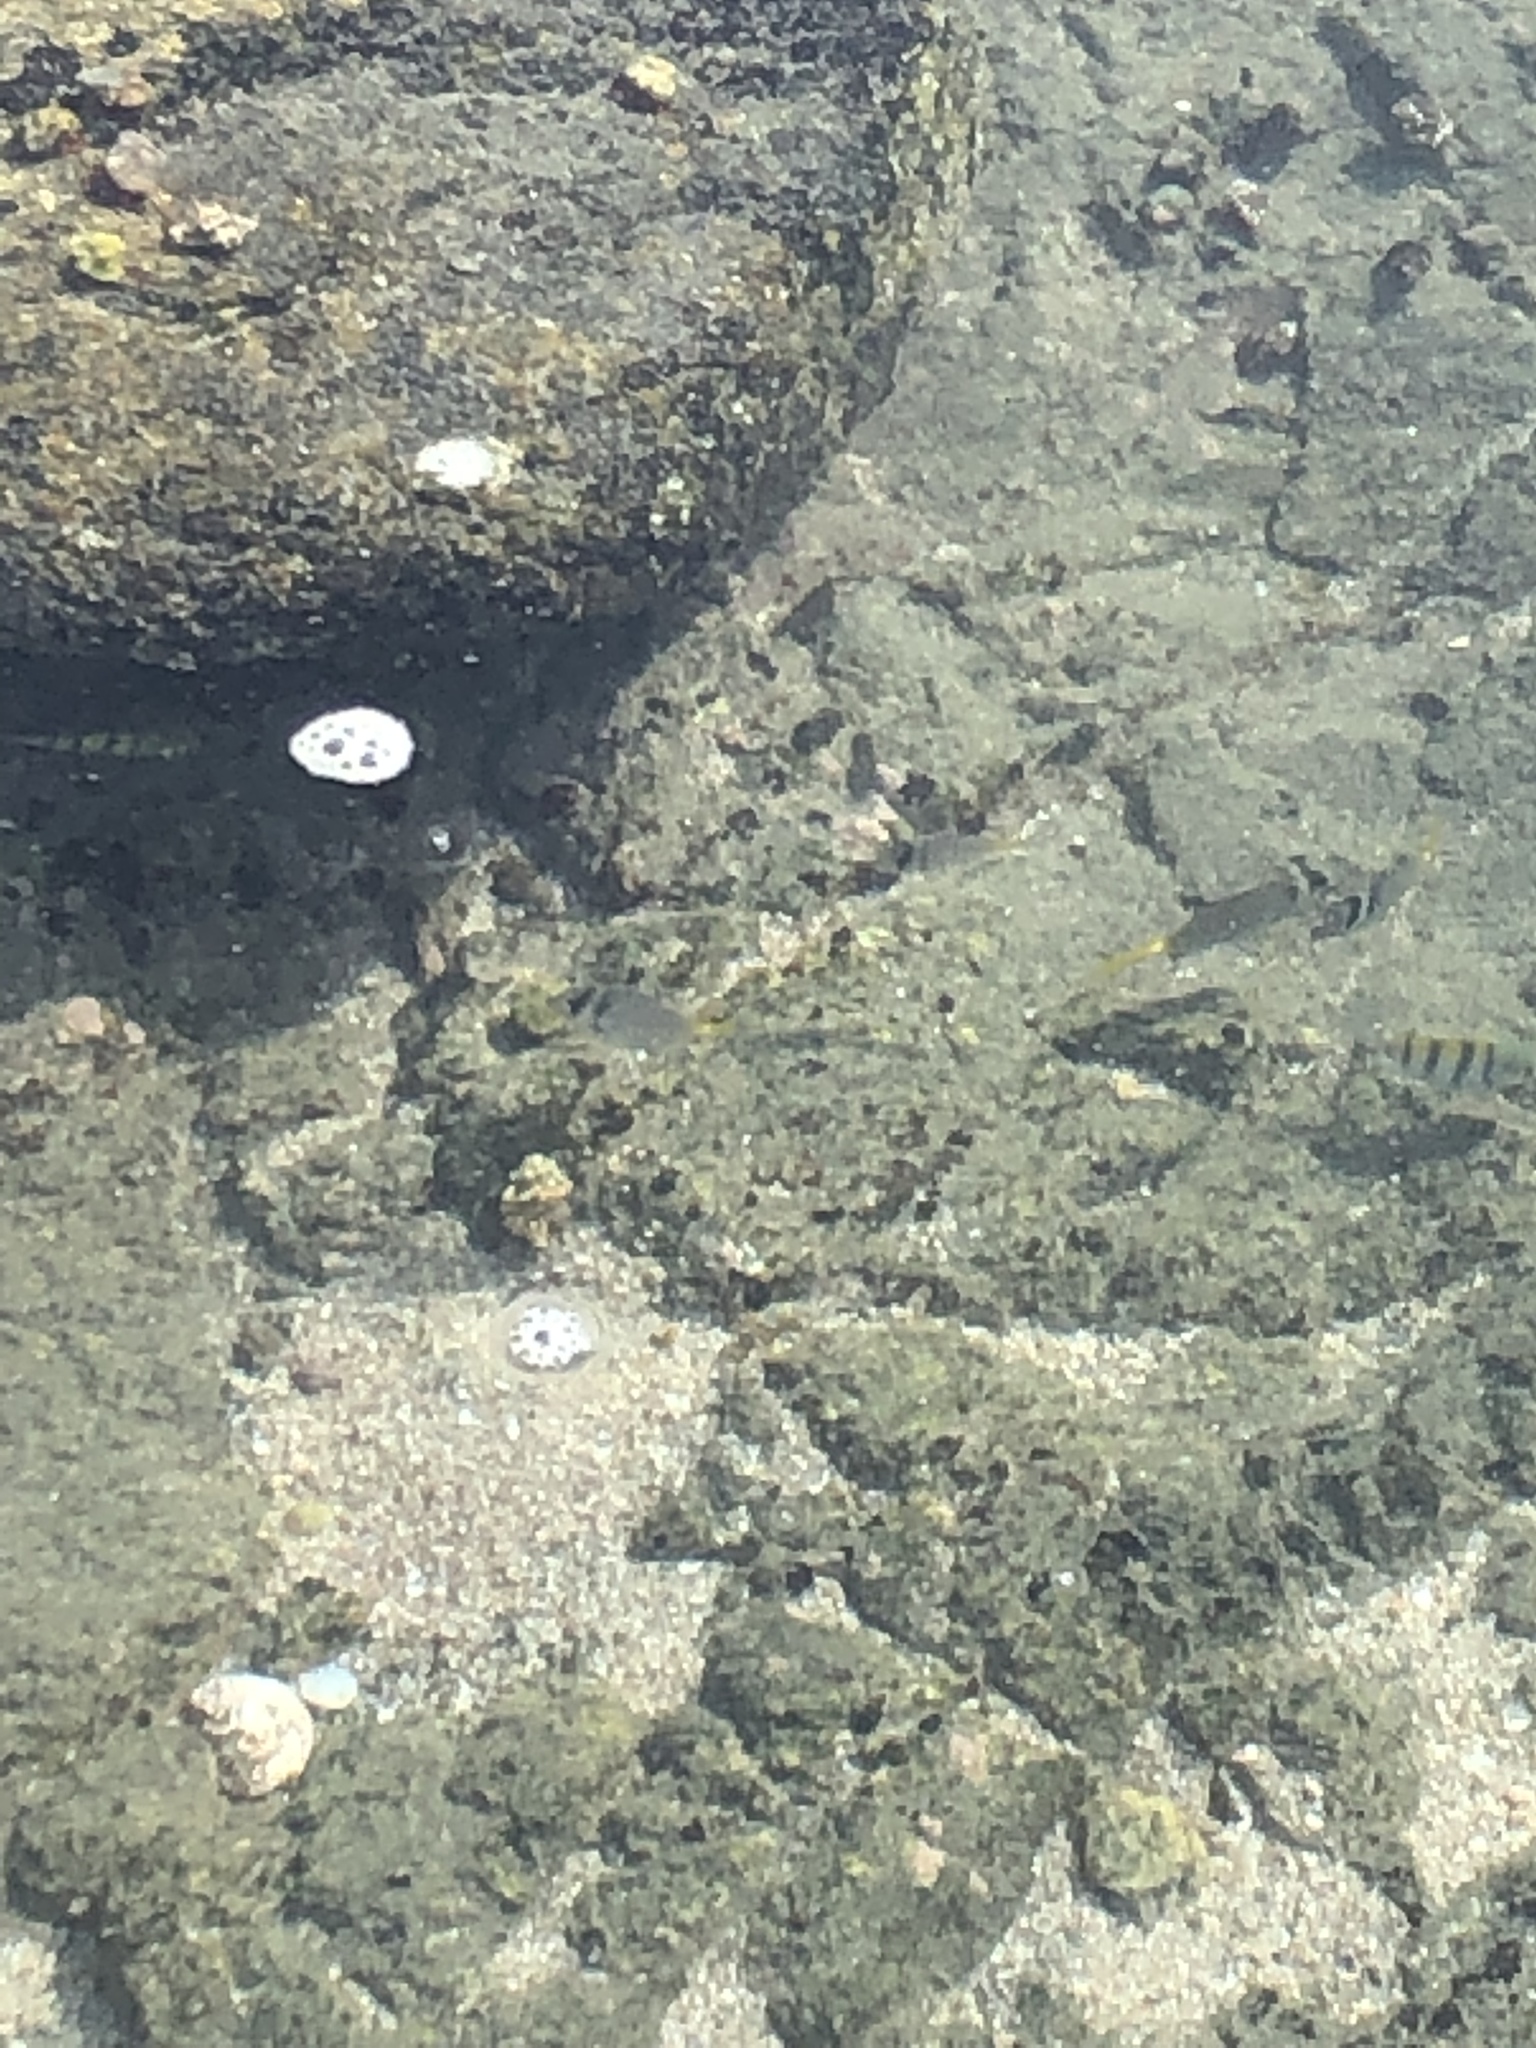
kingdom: Animalia
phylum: Chordata
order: Perciformes
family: Pomacentridae
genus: Abudefduf
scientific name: Abudefduf troschelii
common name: Panamic sergeant major
